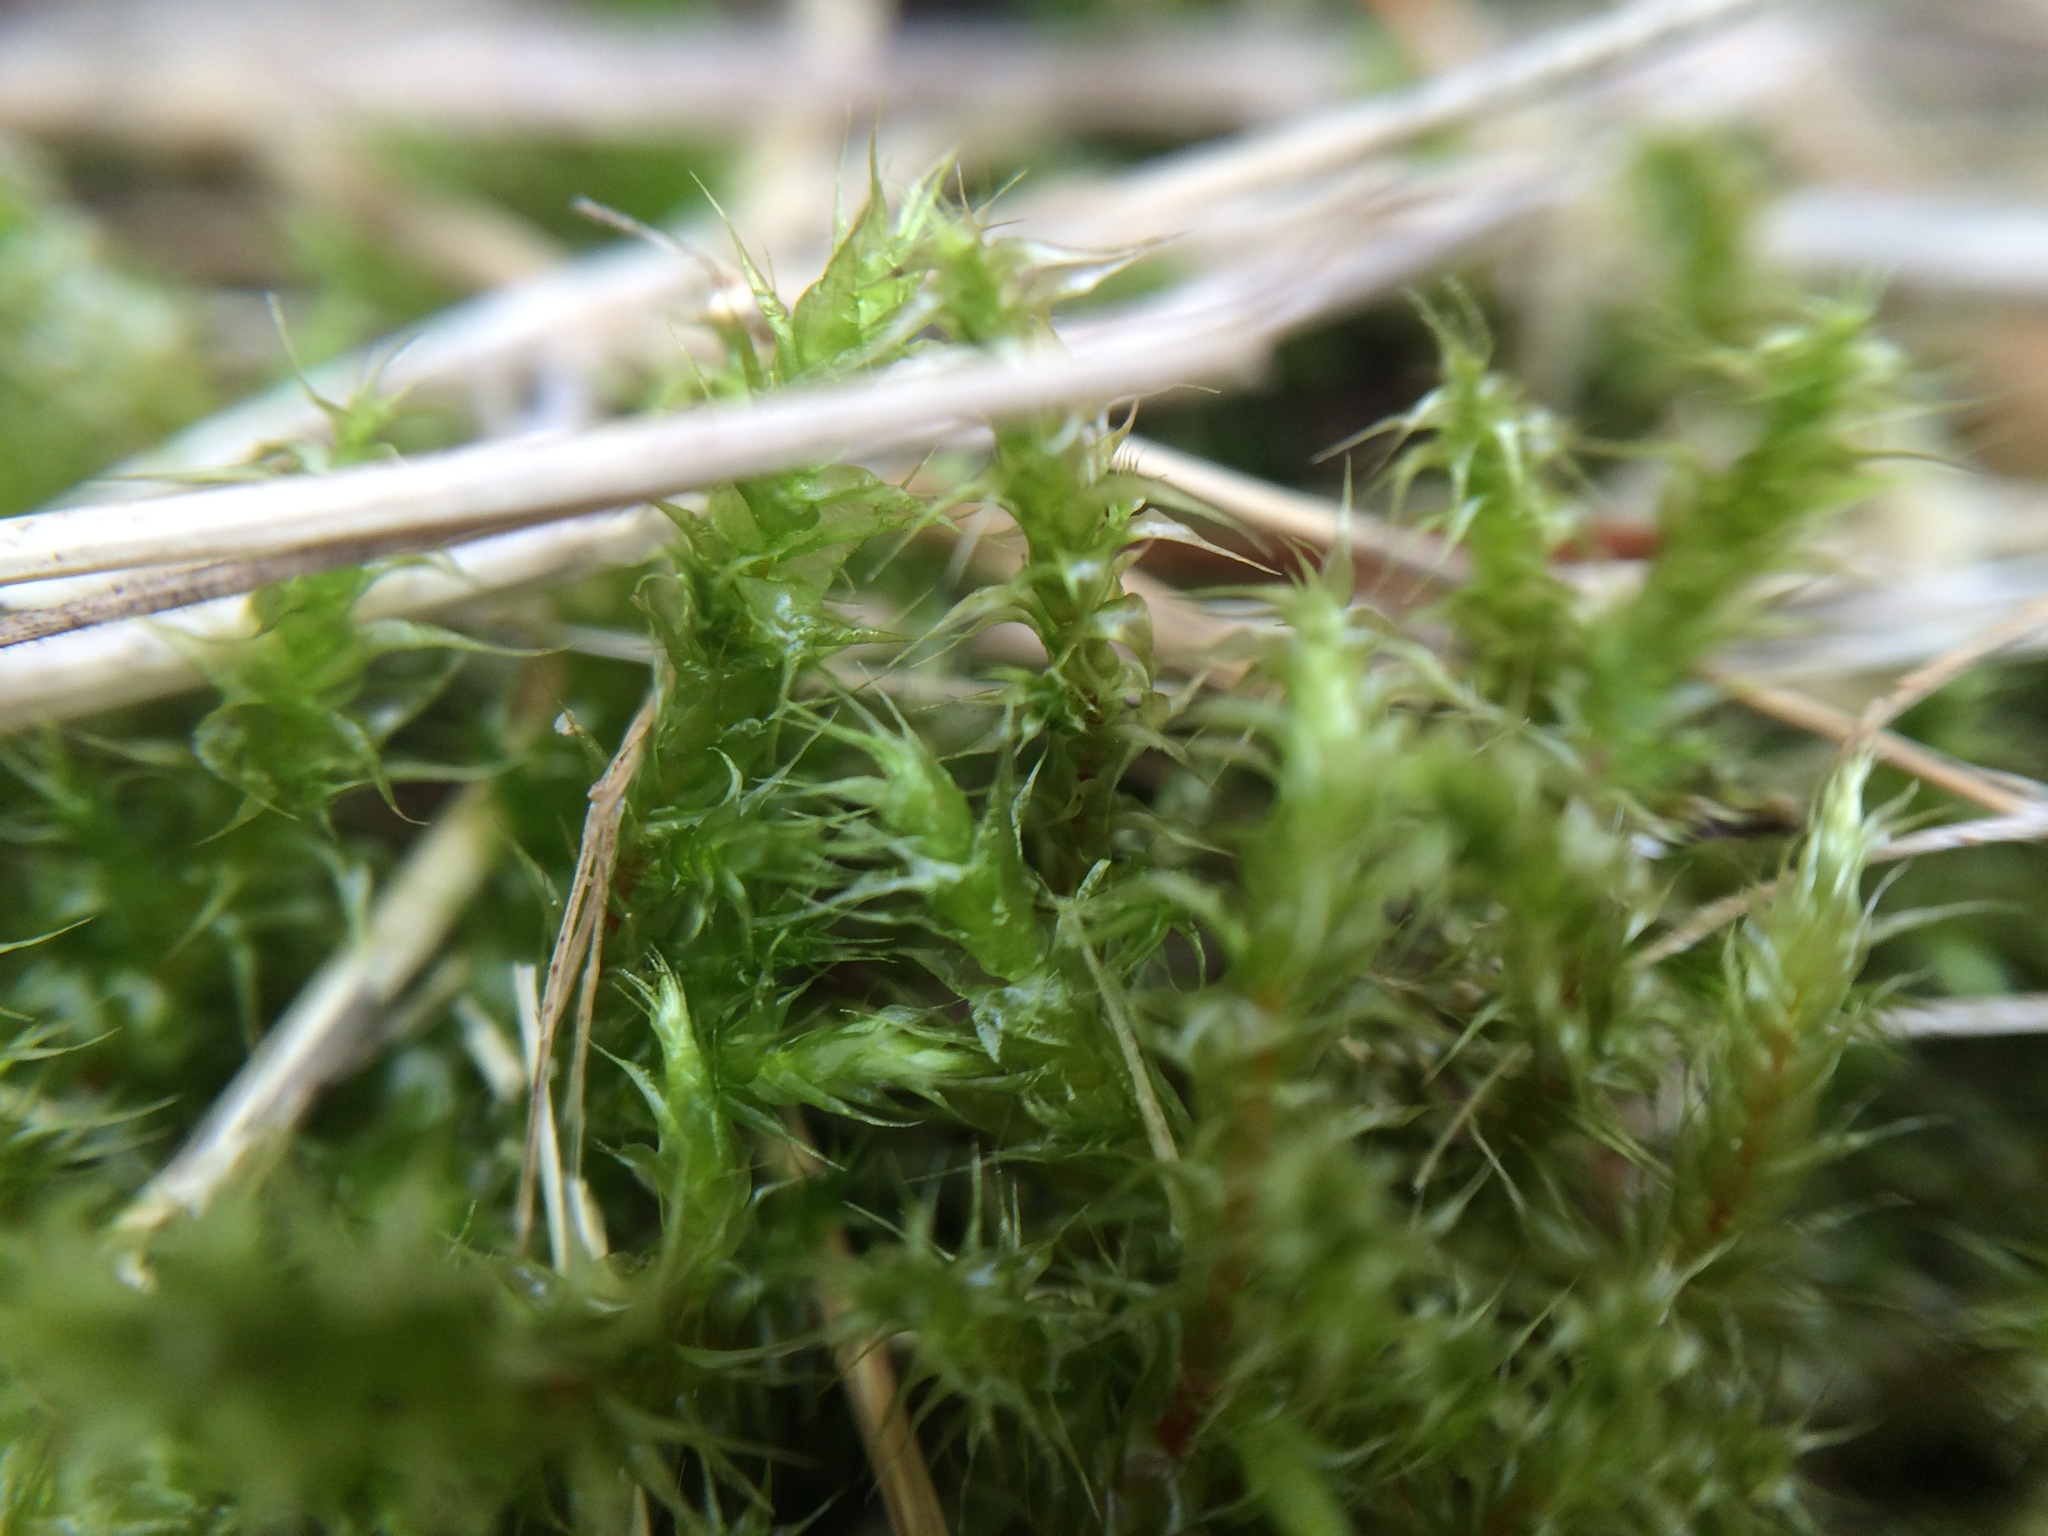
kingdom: Plantae
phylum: Bryophyta
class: Bryopsida
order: Hypnales
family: Hylocomiaceae
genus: Rhytidiadelphus
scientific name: Rhytidiadelphus squarrosus
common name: Springy turf-moss
